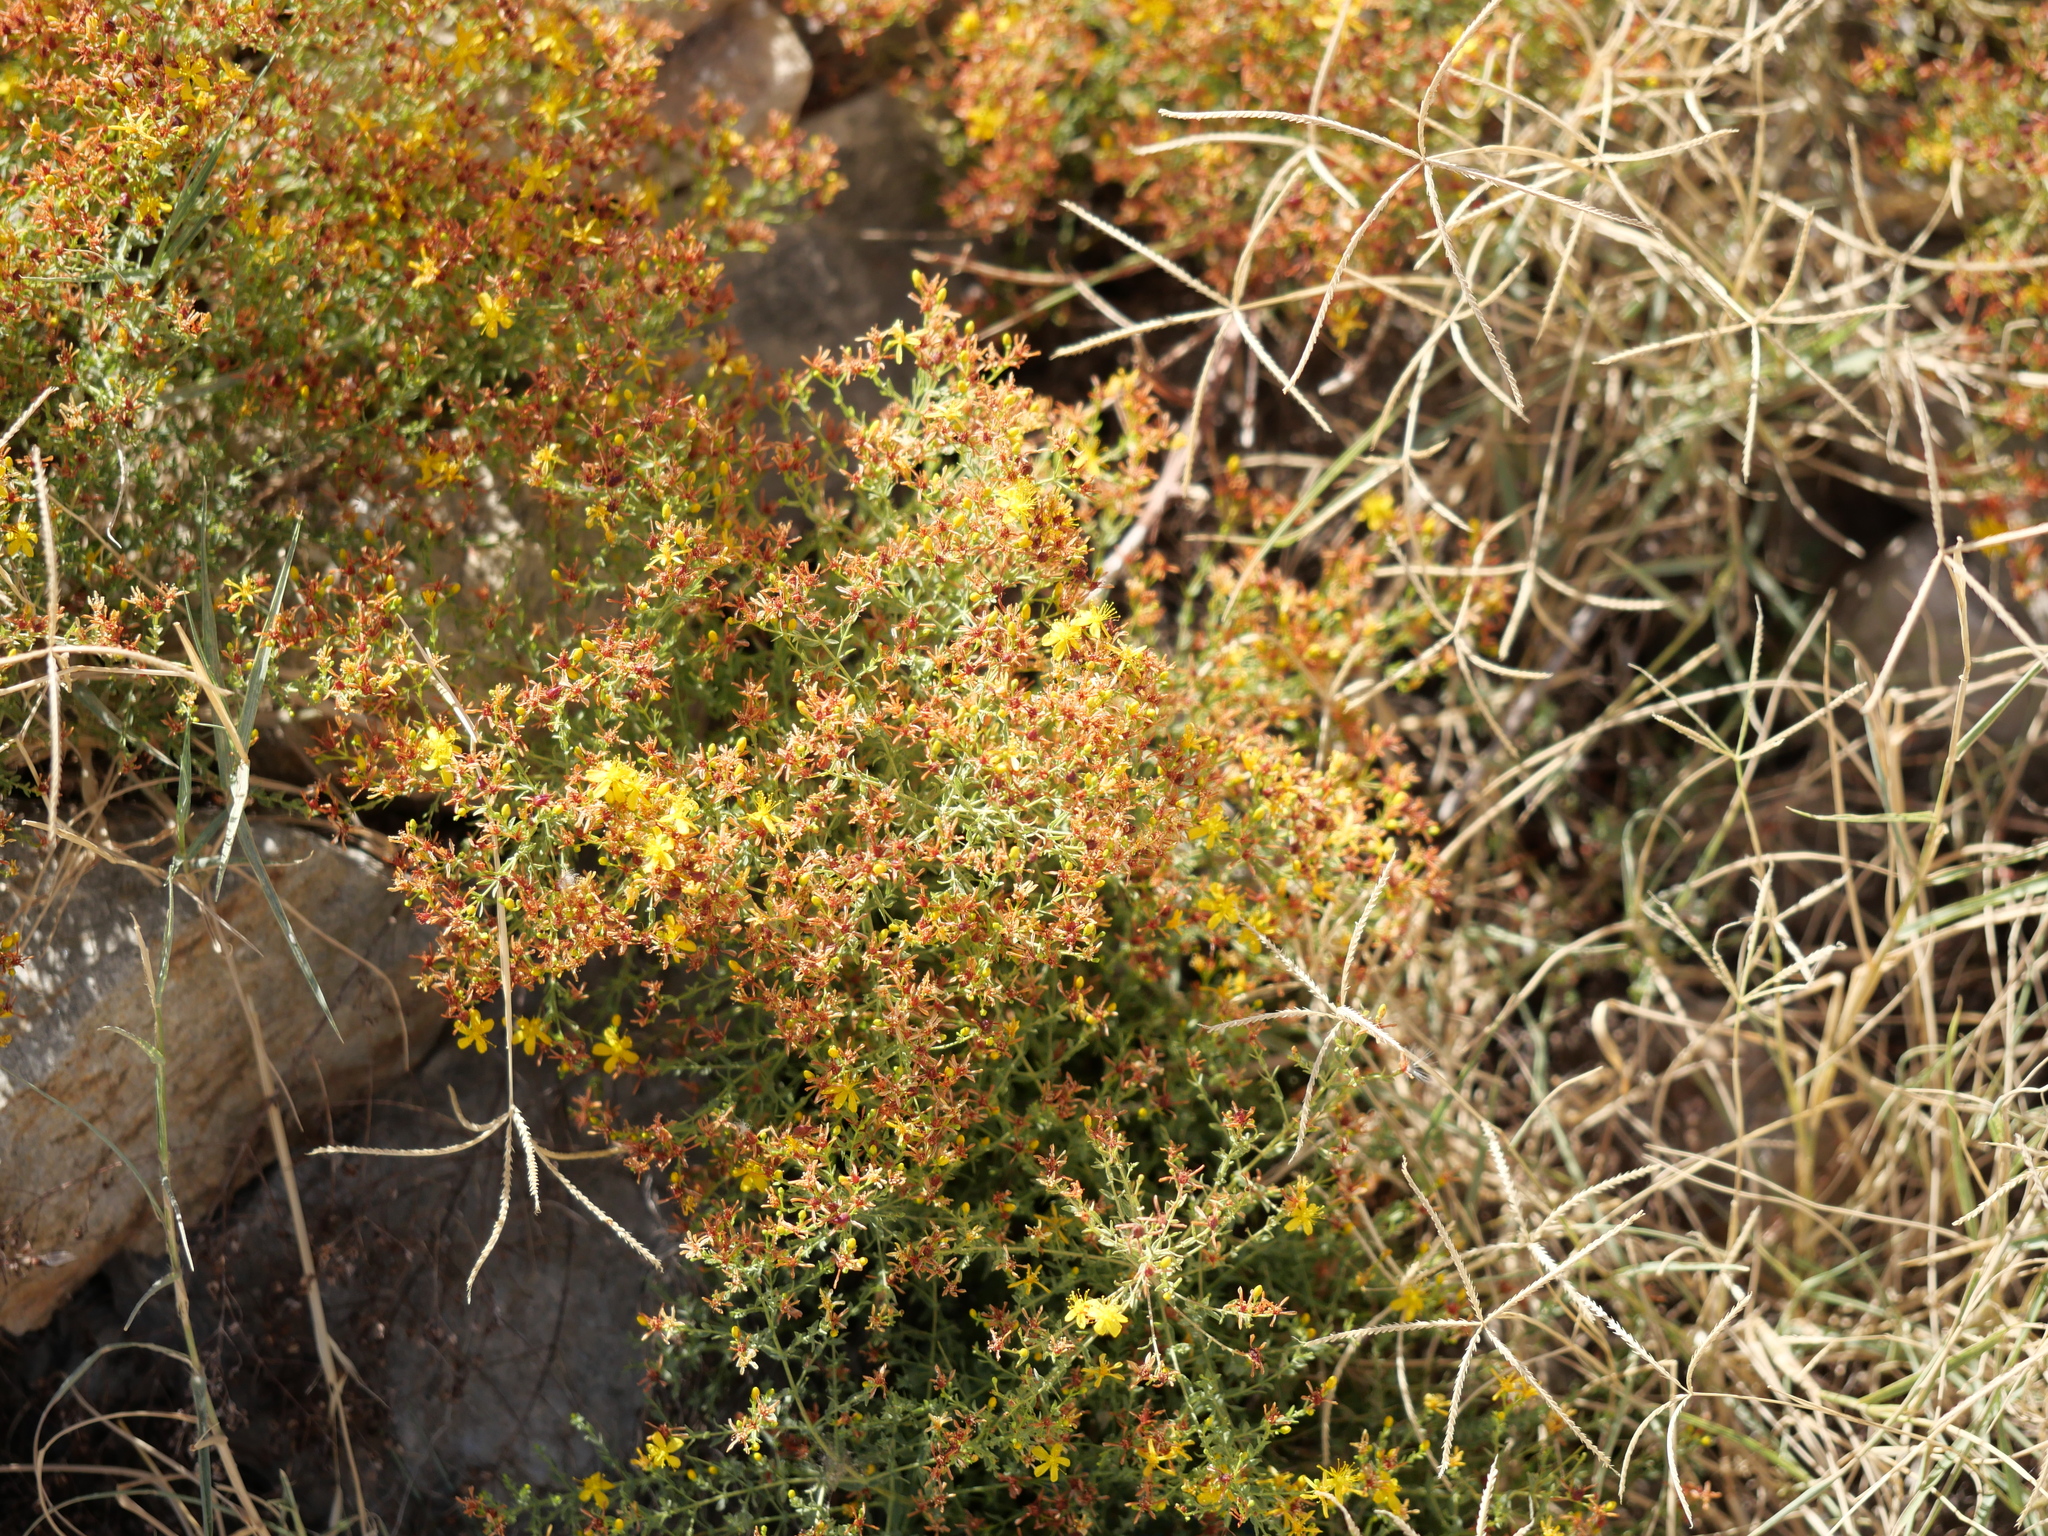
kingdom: Plantae
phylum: Tracheophyta
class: Magnoliopsida
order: Malpighiales
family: Hypericaceae
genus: Hypericum
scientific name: Hypericum triquetrifolium
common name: Tangled hypericum
